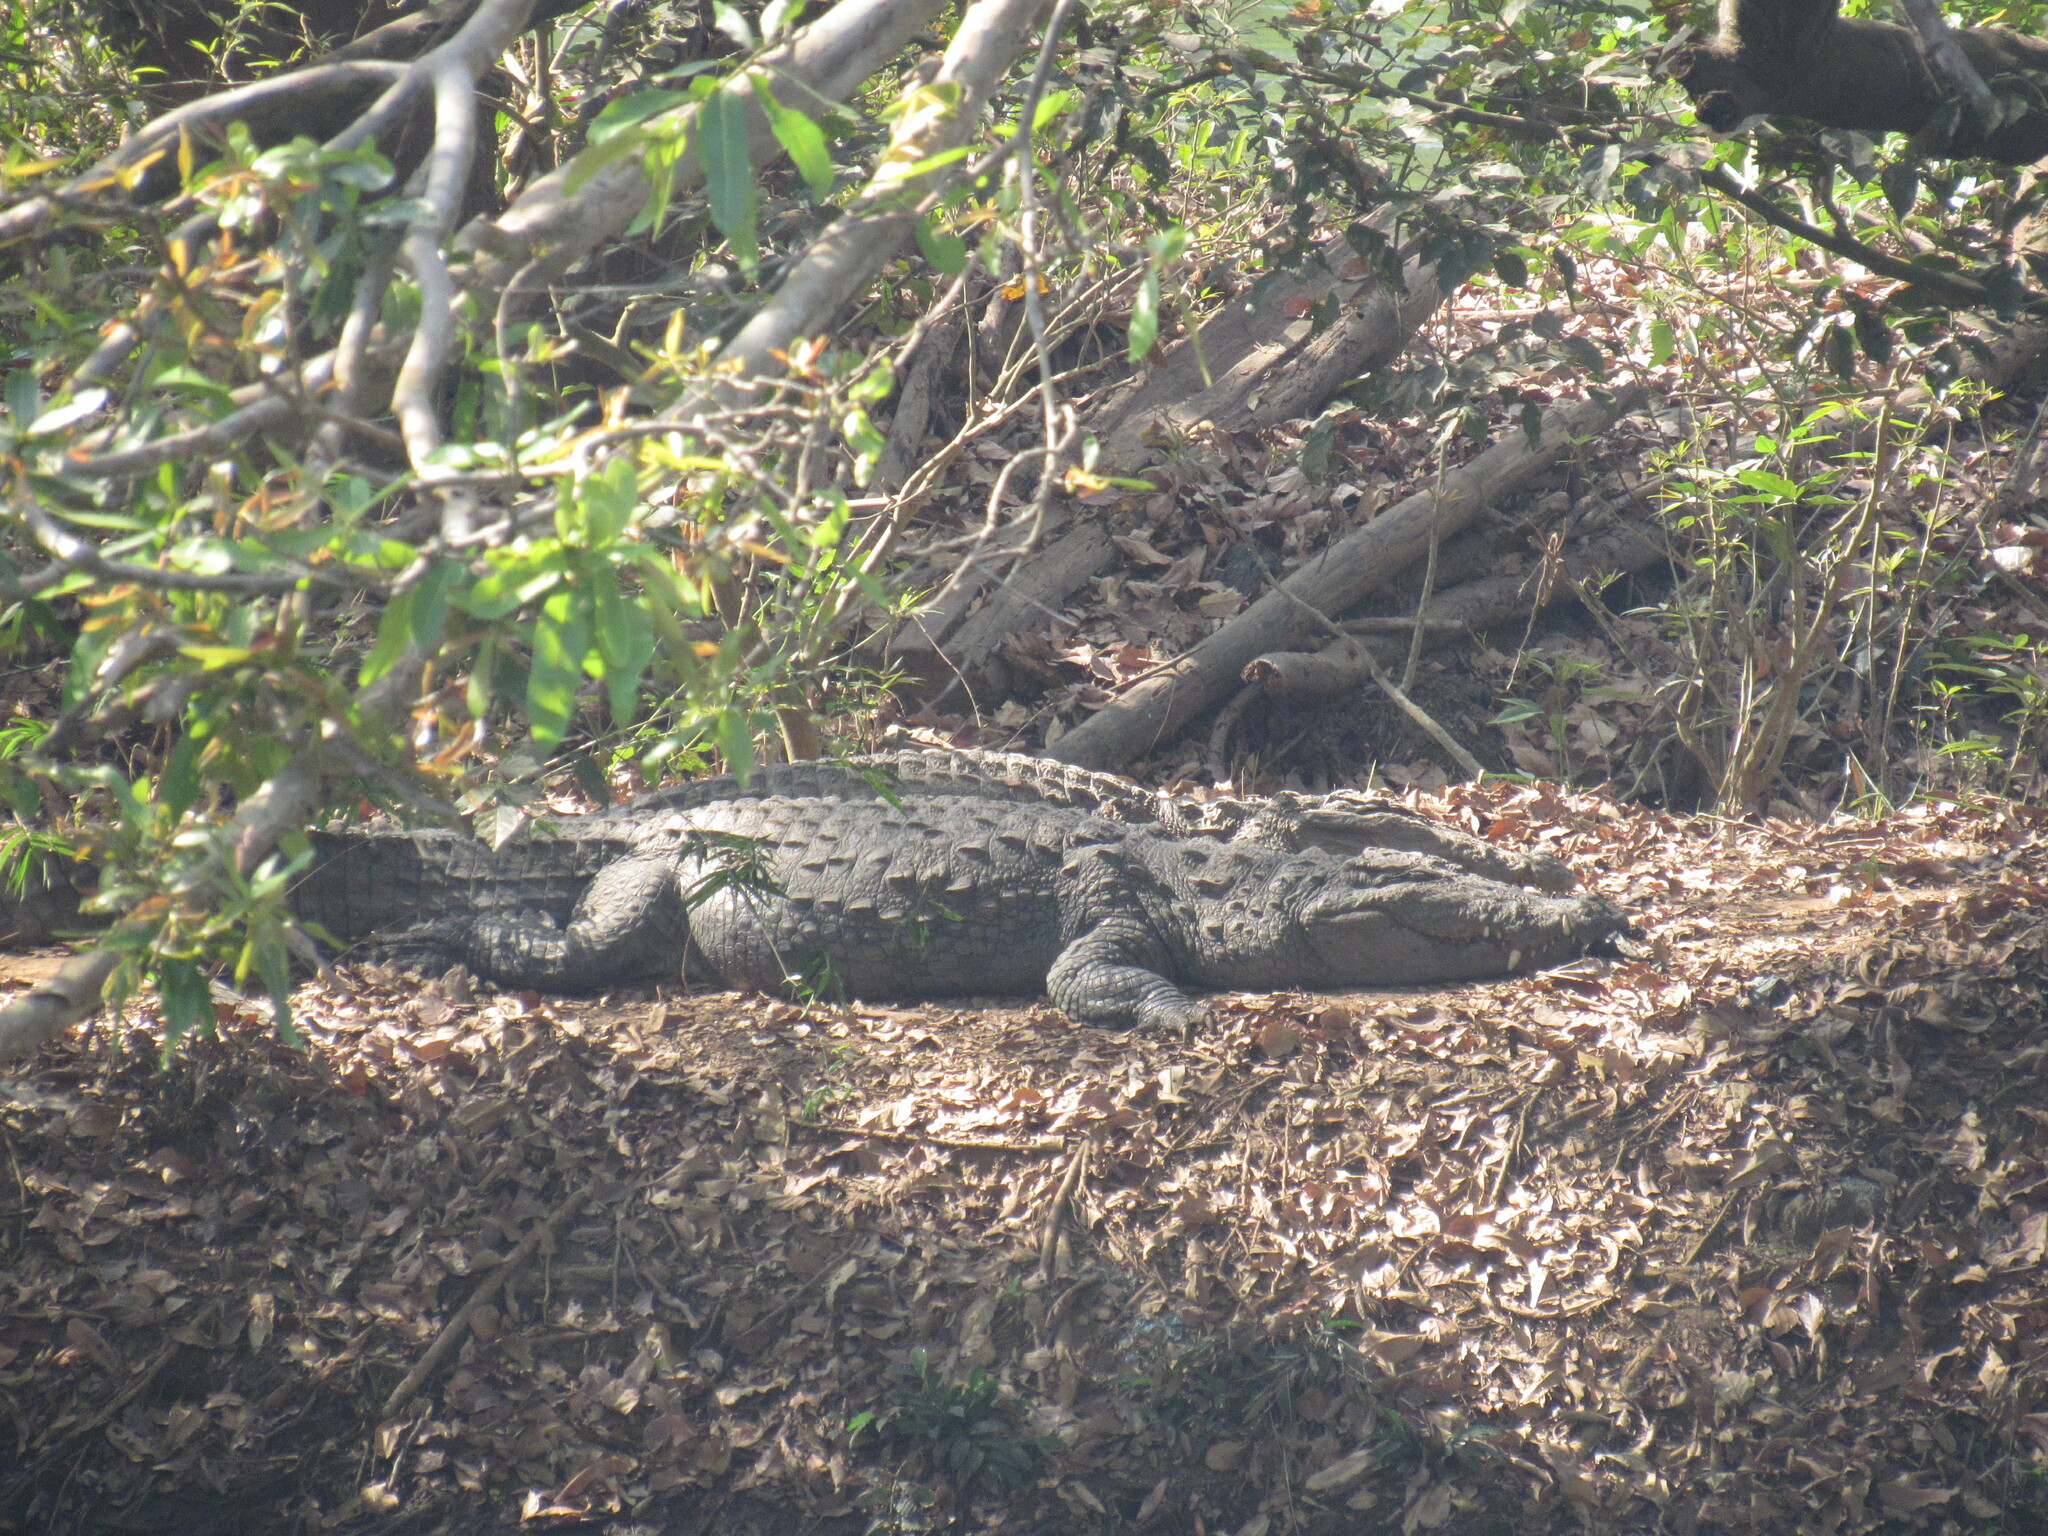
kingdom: Animalia
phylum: Chordata
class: Crocodylia
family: Crocodylidae
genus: Crocodylus
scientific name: Crocodylus palustris
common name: Mugger crocodile
